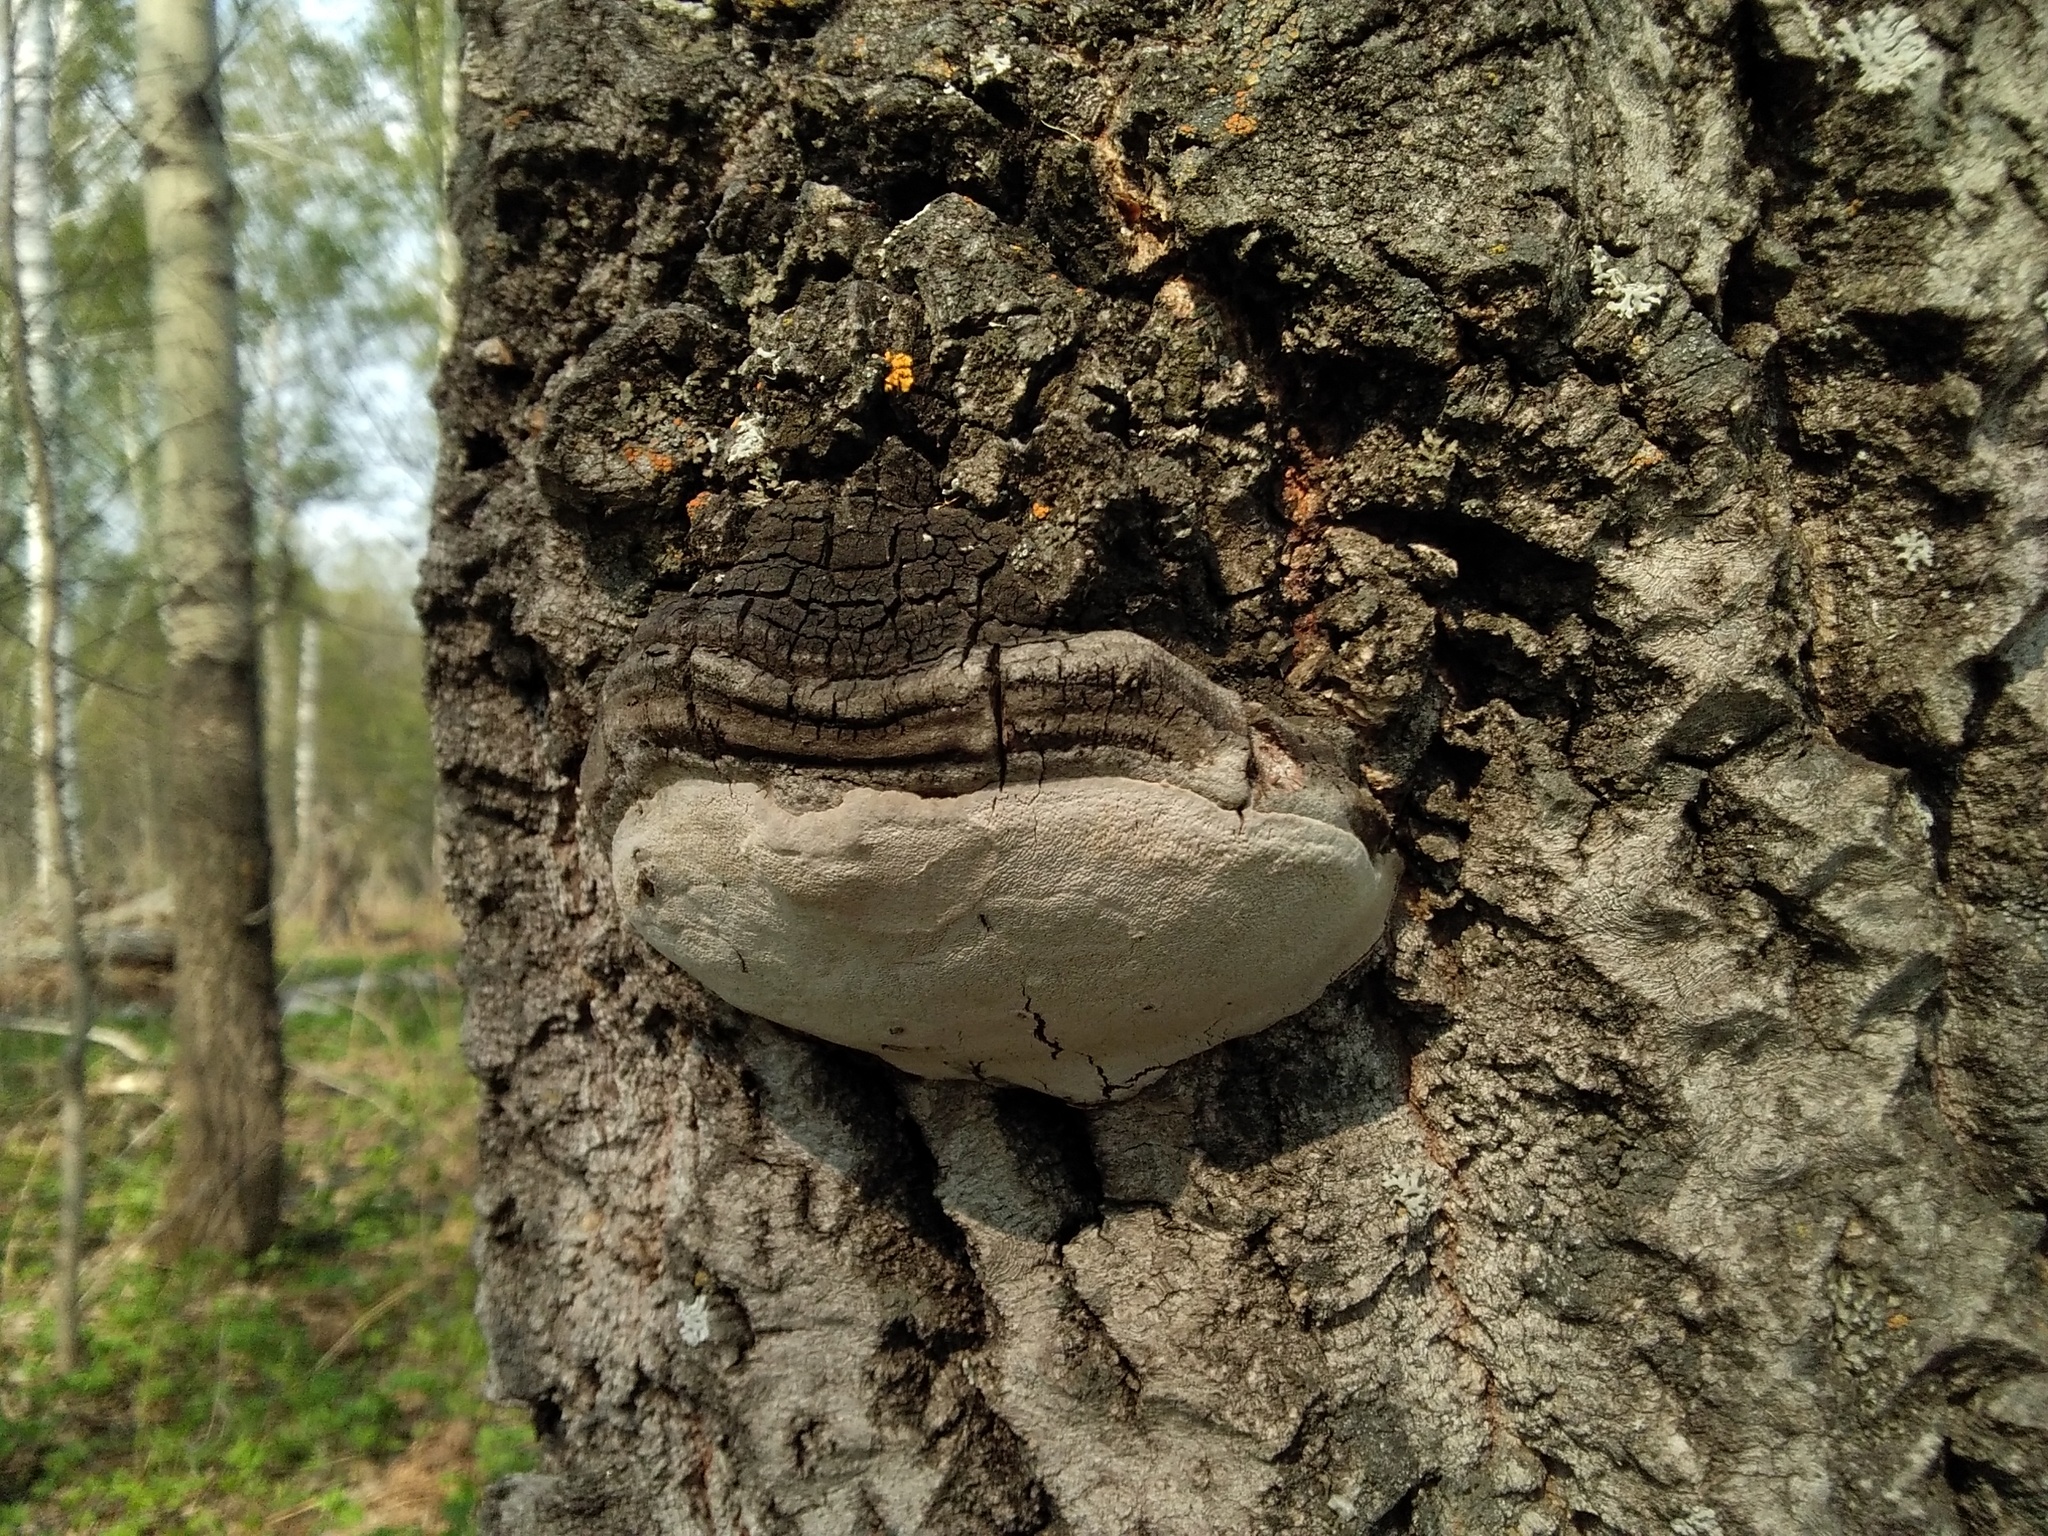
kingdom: Fungi
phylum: Basidiomycota
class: Agaricomycetes
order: Hymenochaetales
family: Hymenochaetaceae
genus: Phellinus
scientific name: Phellinus tremulae
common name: Aspen bracket
